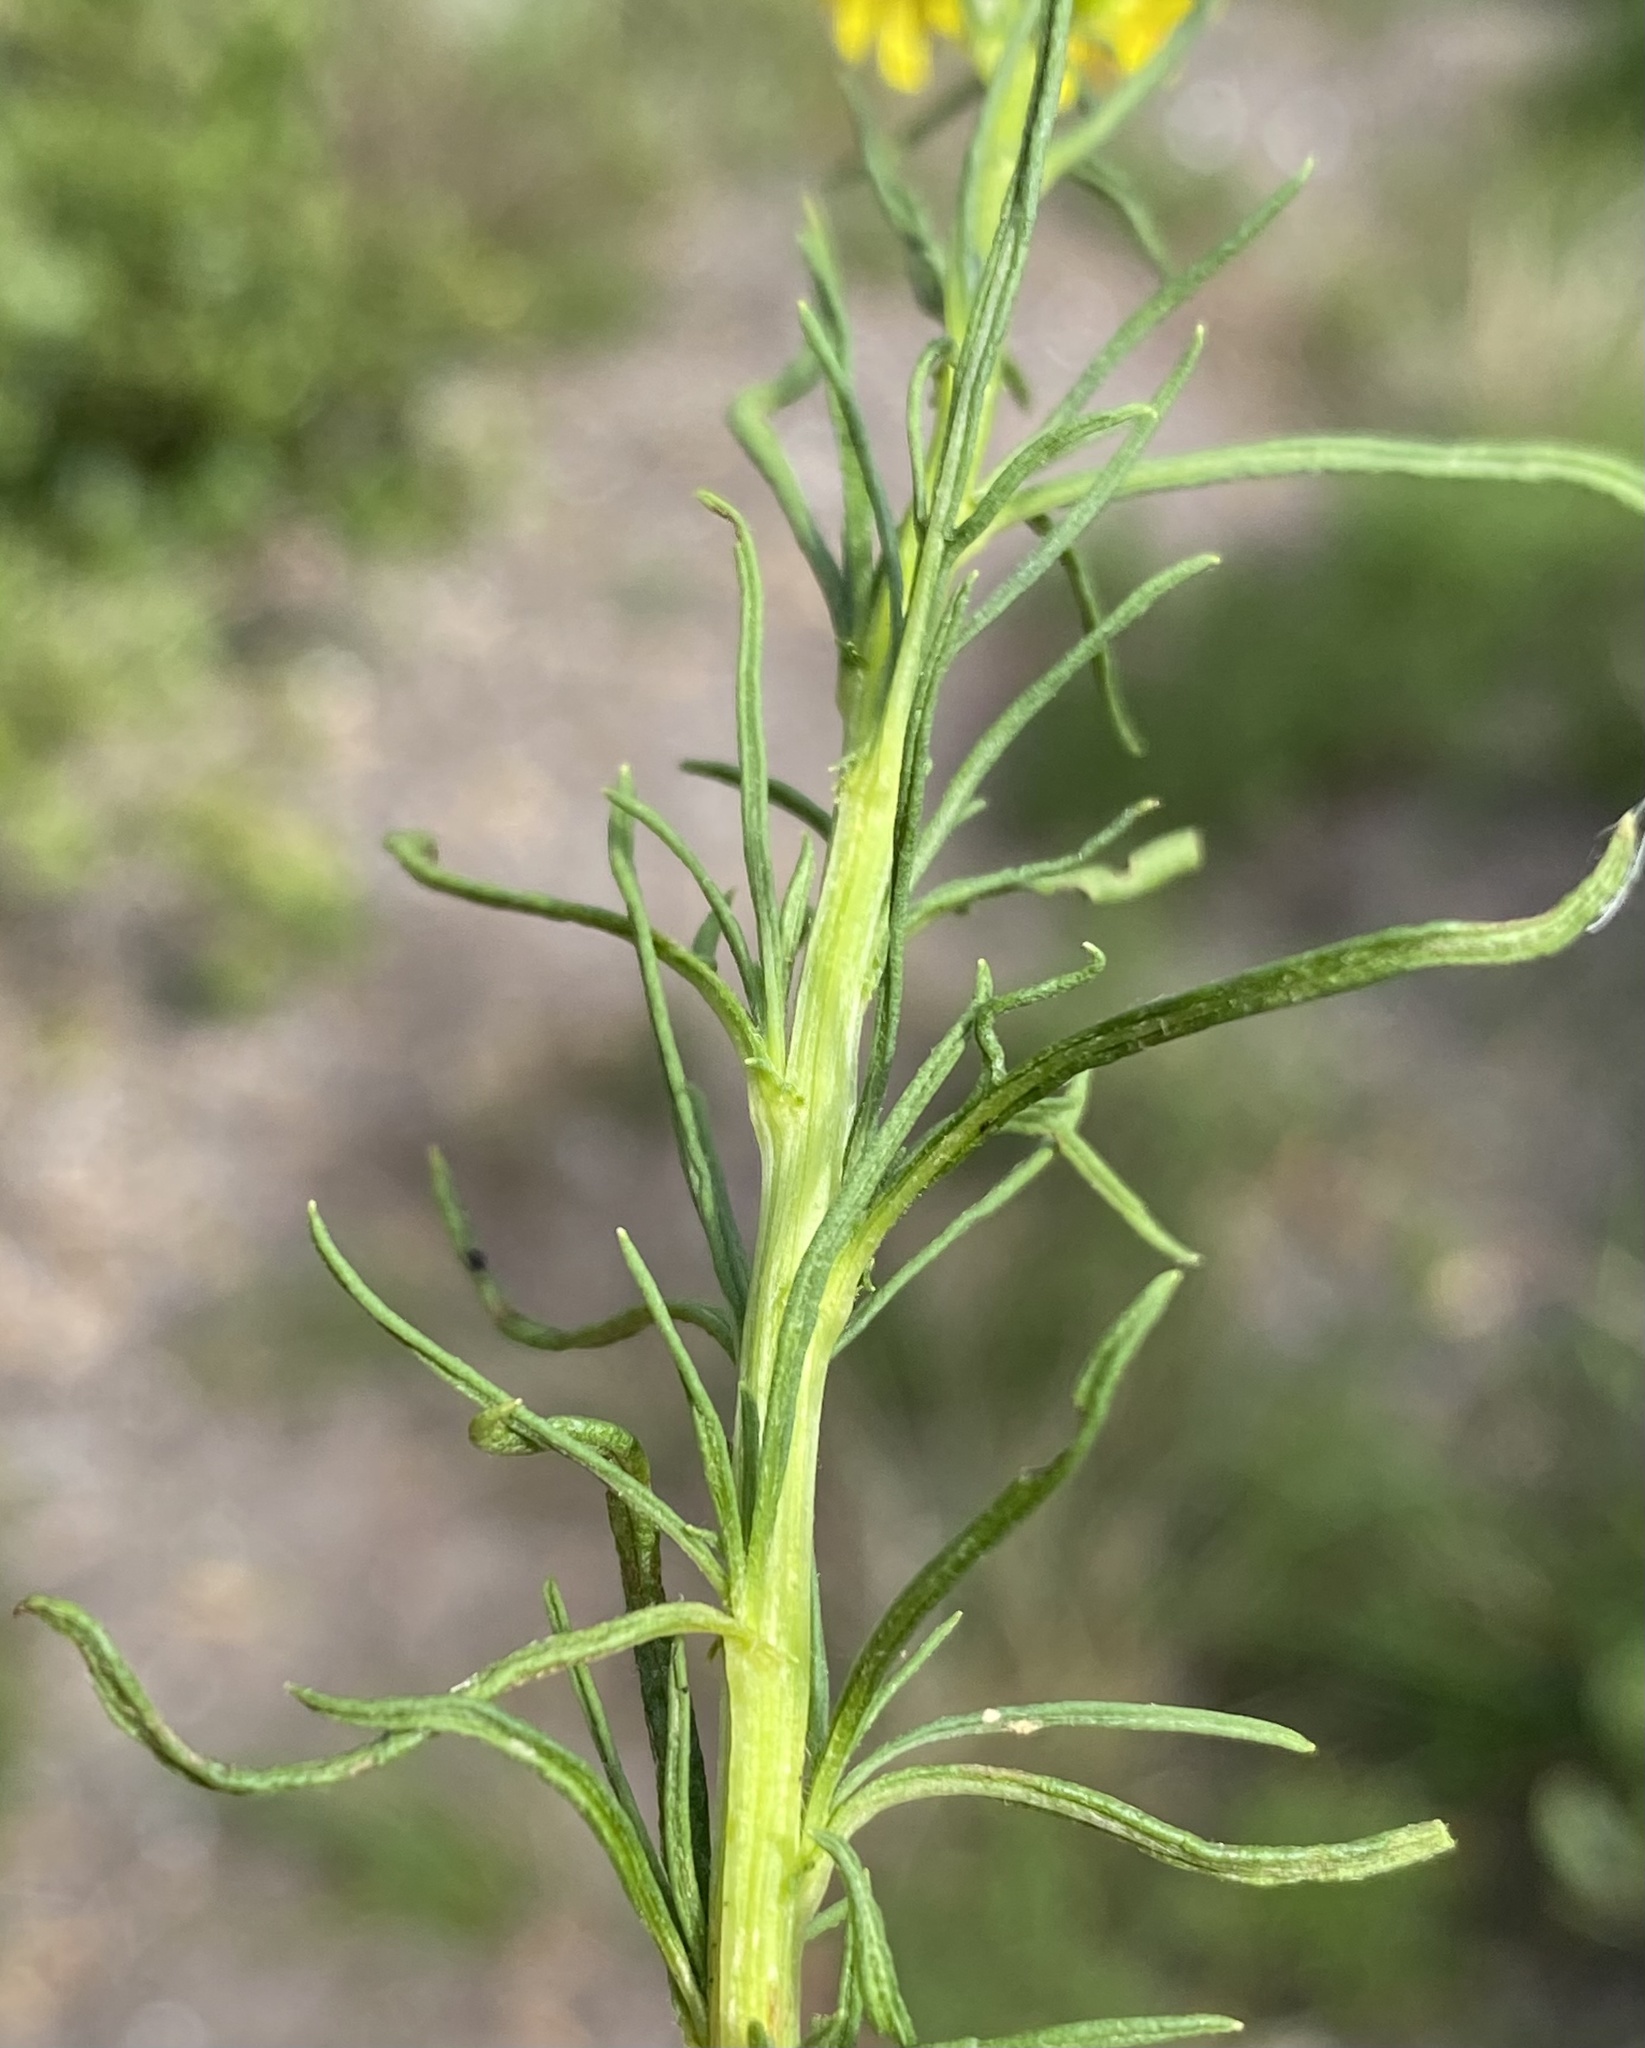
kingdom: Plantae
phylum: Tracheophyta
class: Magnoliopsida
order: Asterales
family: Asteraceae
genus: Senecio
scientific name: Senecio inaequidens
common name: Narrow-leaved ragwort
